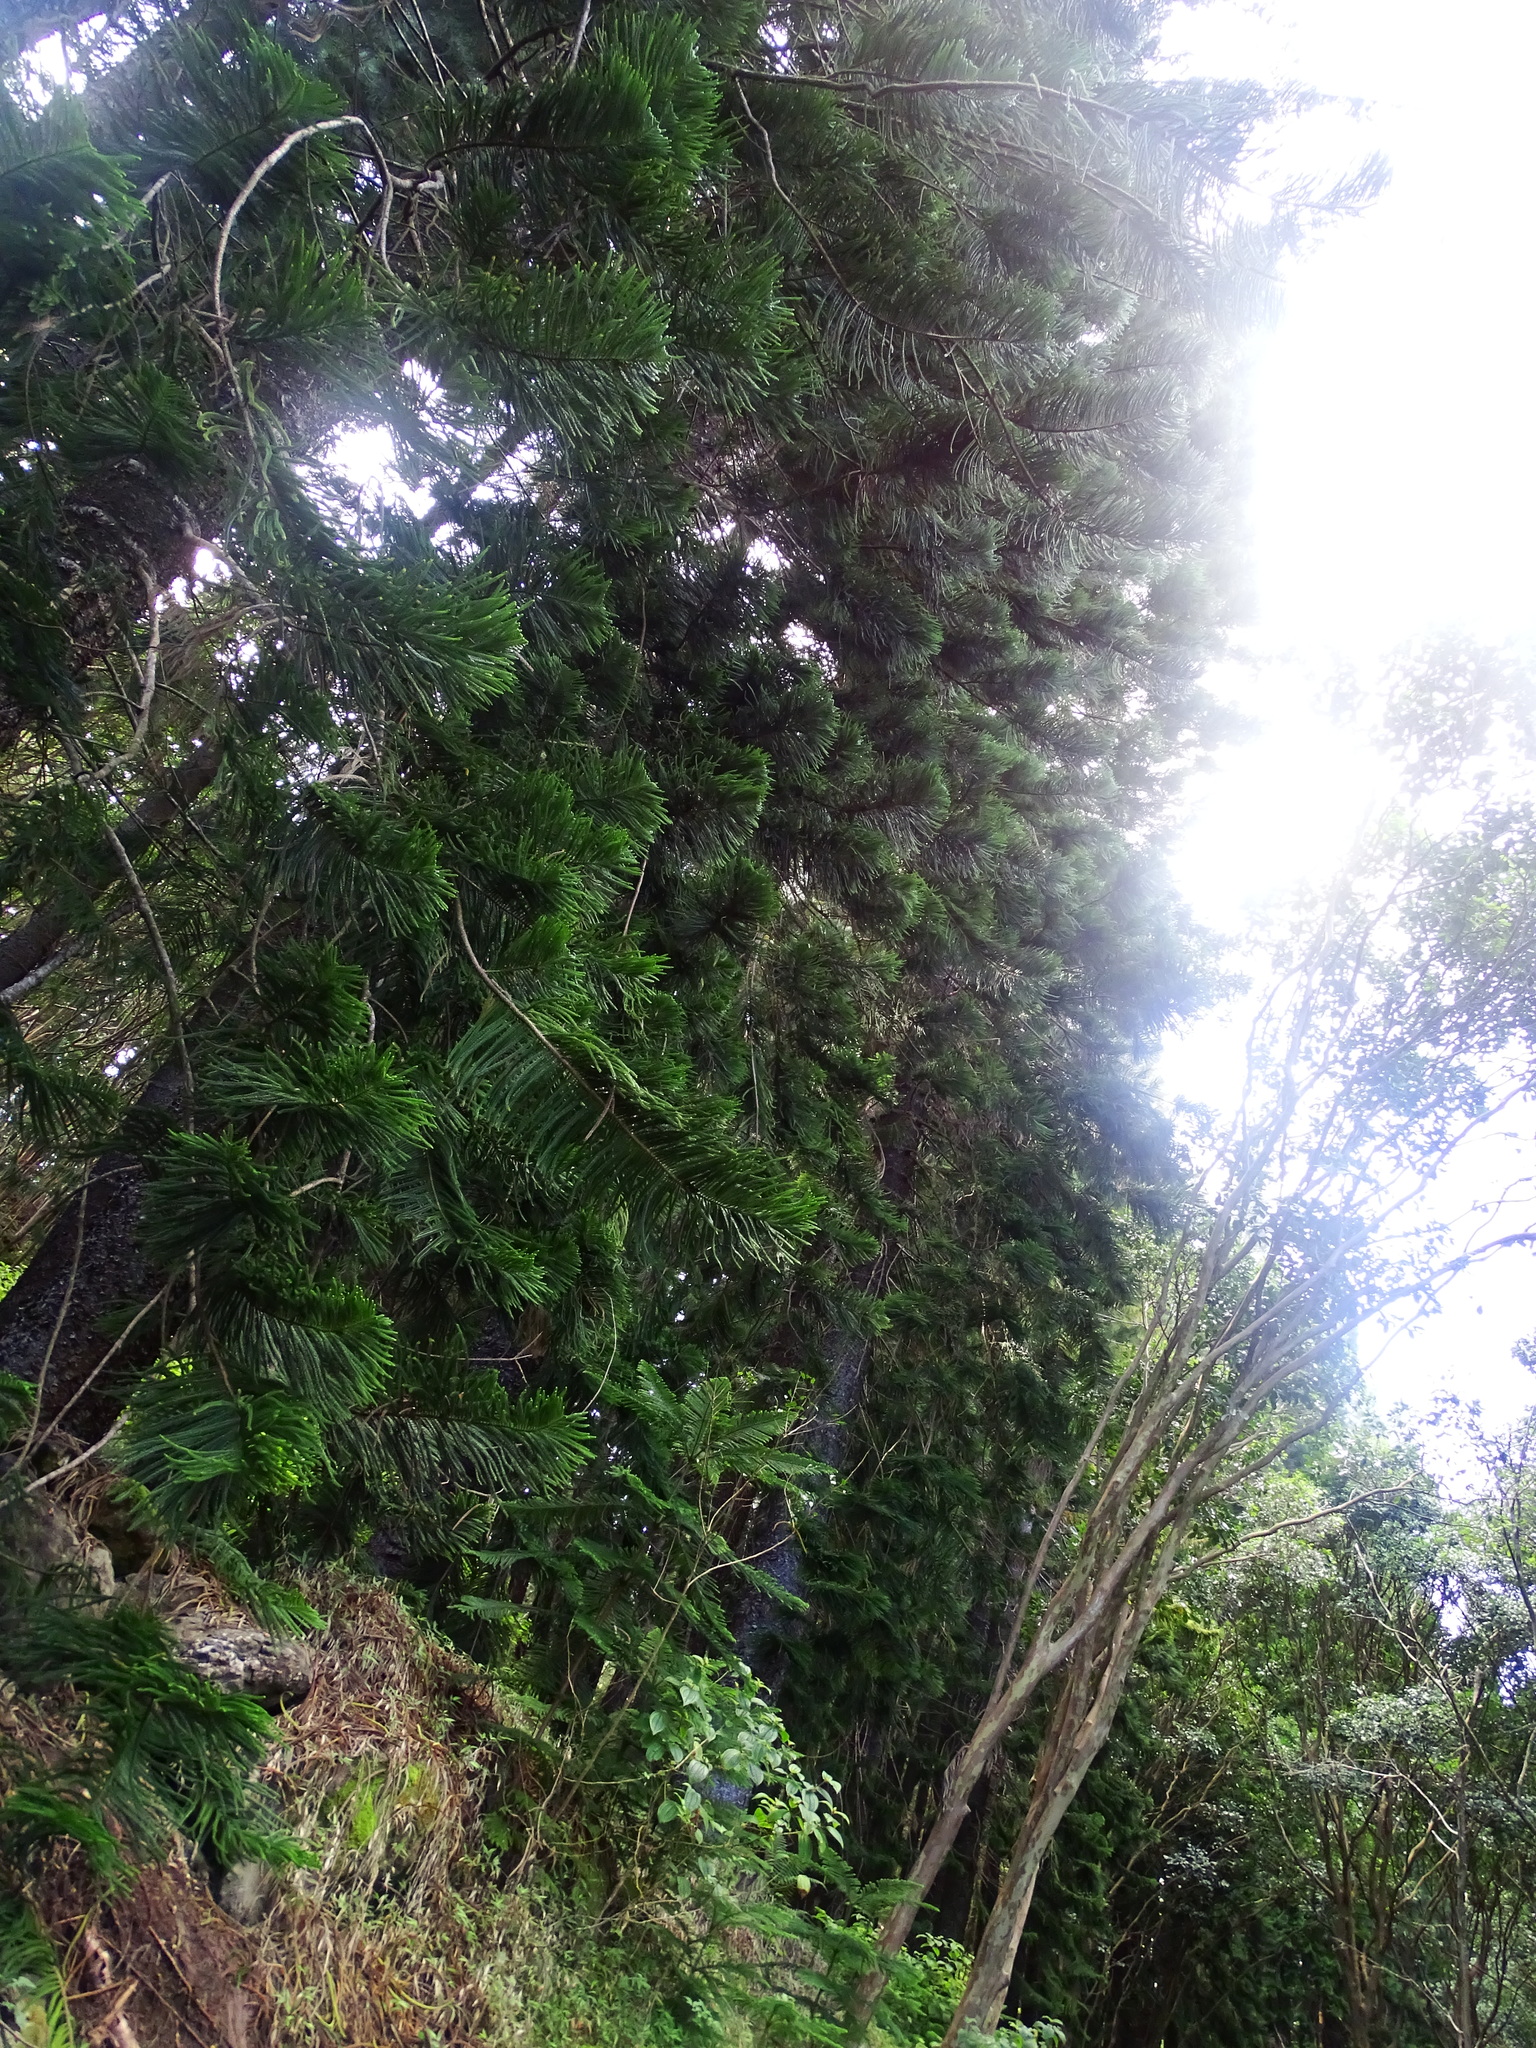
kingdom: Plantae
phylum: Tracheophyta
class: Pinopsida
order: Pinales
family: Araucariaceae
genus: Araucaria
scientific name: Araucaria columnaris
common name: Coral reef araucaria
